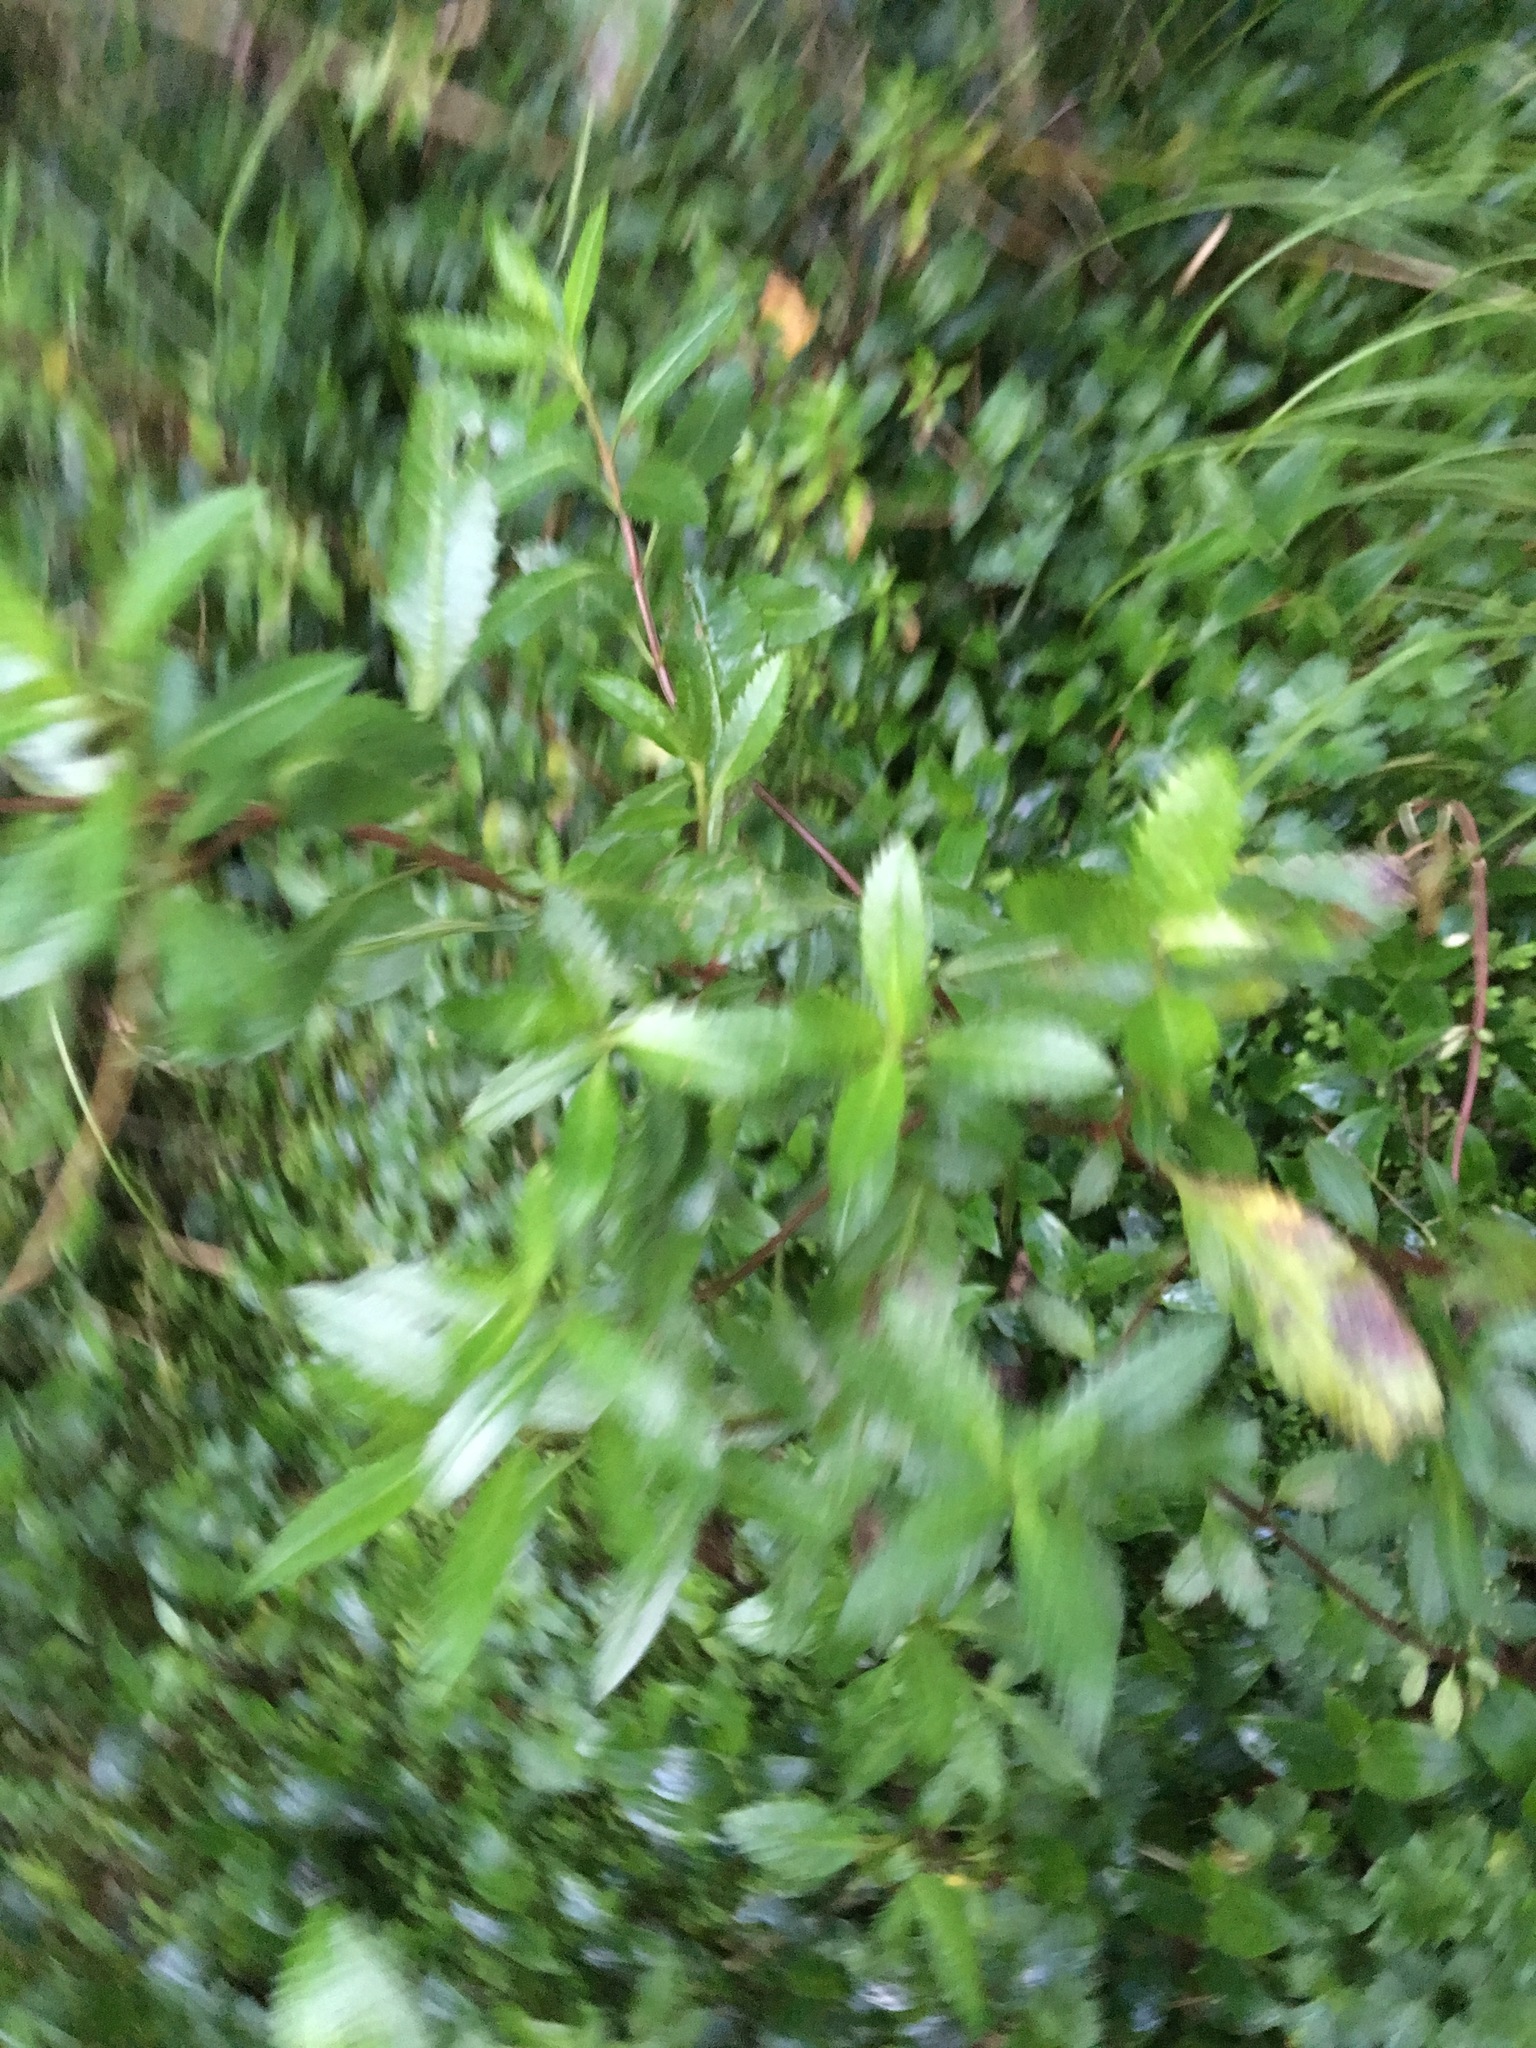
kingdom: Plantae
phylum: Tracheophyta
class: Magnoliopsida
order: Saxifragales
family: Haloragaceae
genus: Haloragis
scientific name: Haloragis erecta
